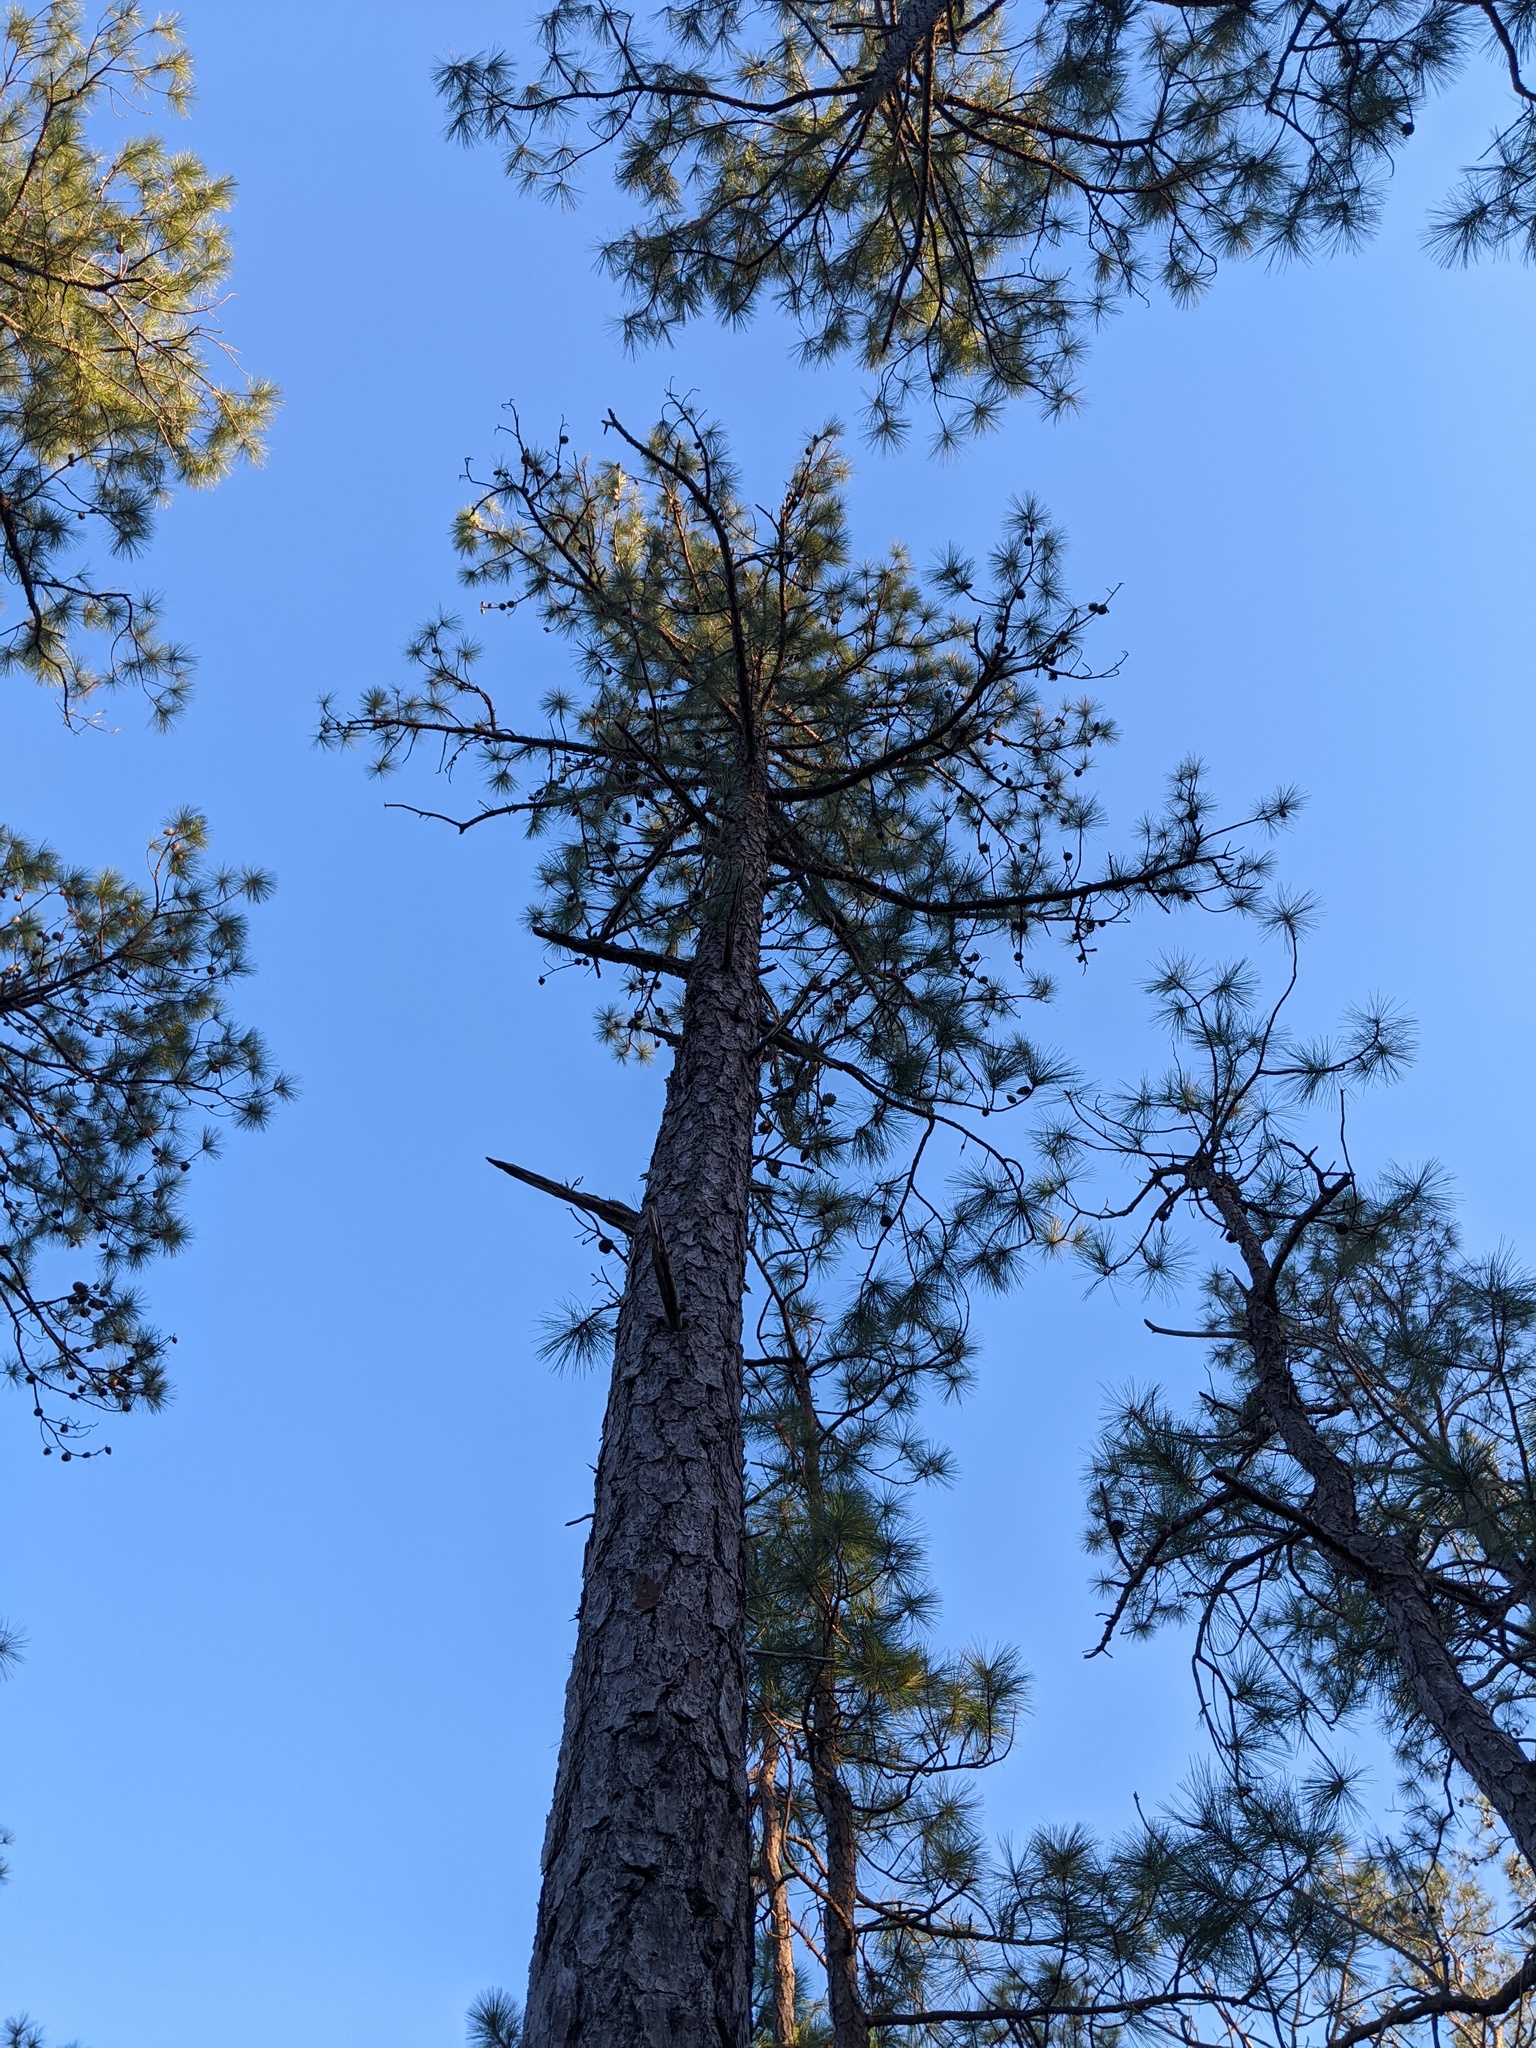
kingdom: Plantae
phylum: Tracheophyta
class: Pinopsida
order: Pinales
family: Pinaceae
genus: Pinus
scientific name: Pinus serotina
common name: Marsh pine
